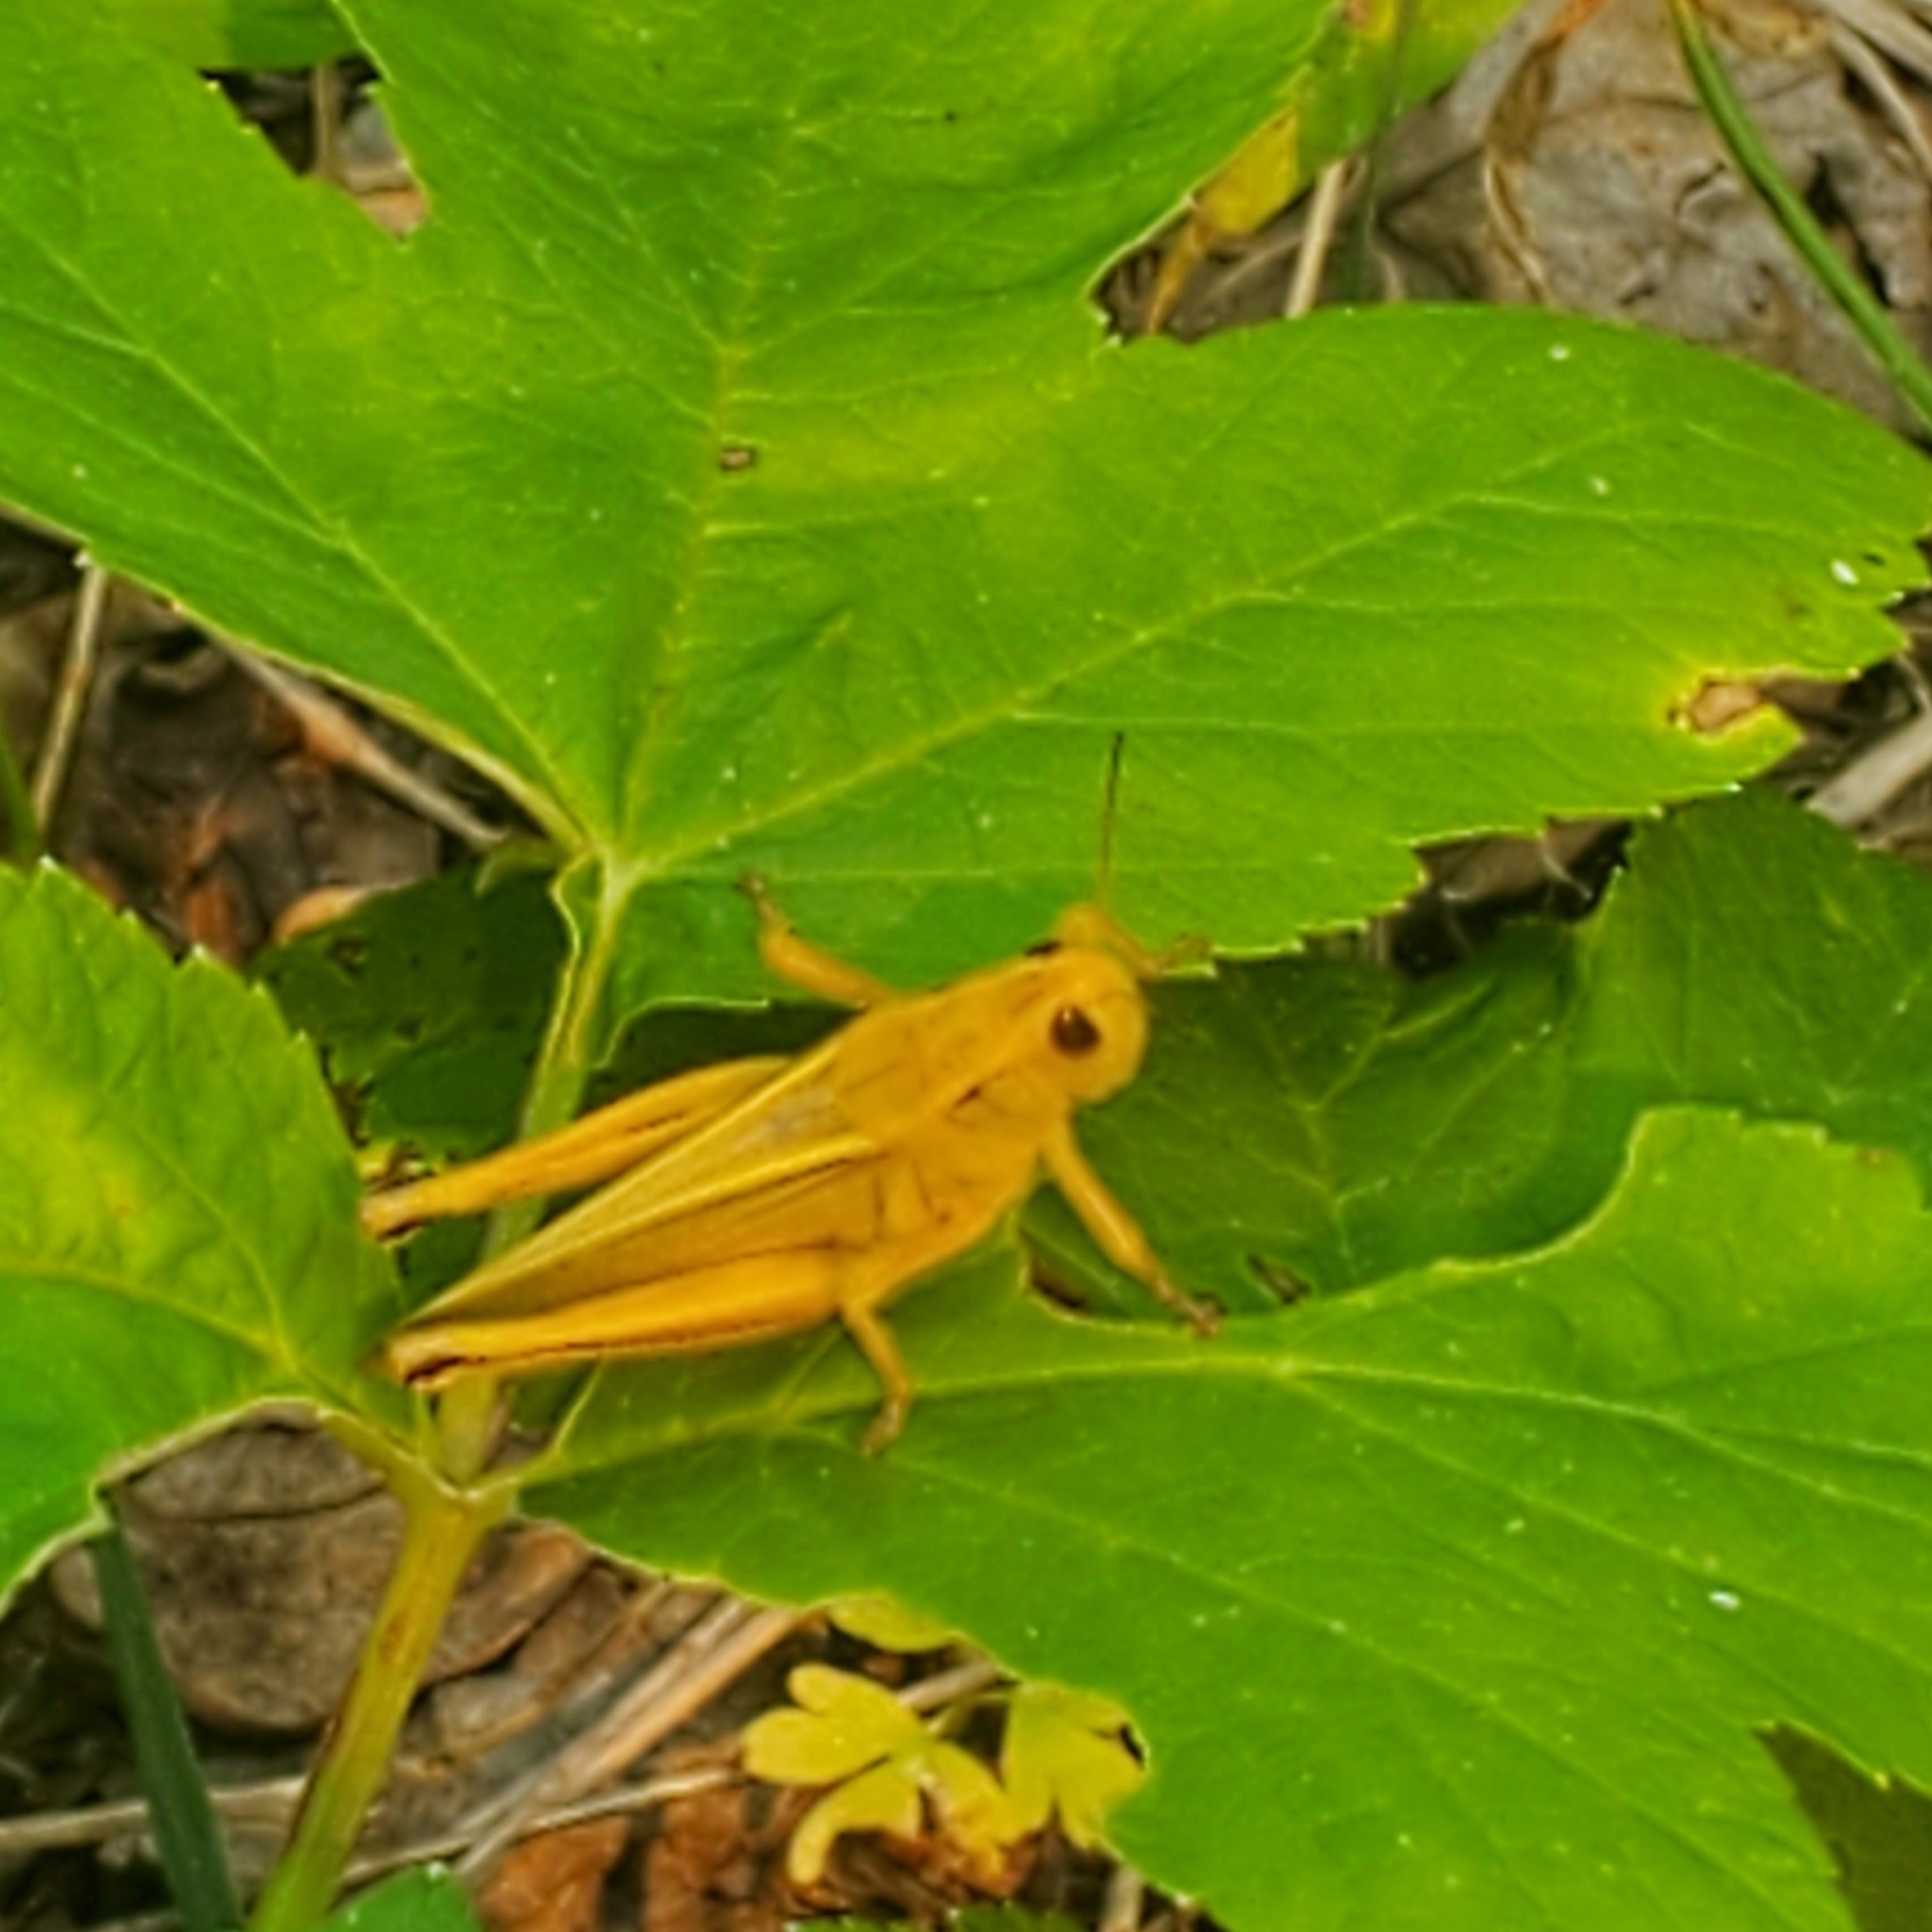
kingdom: Animalia
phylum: Arthropoda
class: Insecta
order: Orthoptera
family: Acrididae
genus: Melanoplus
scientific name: Melanoplus bivittatus
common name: Two-striped grasshopper
